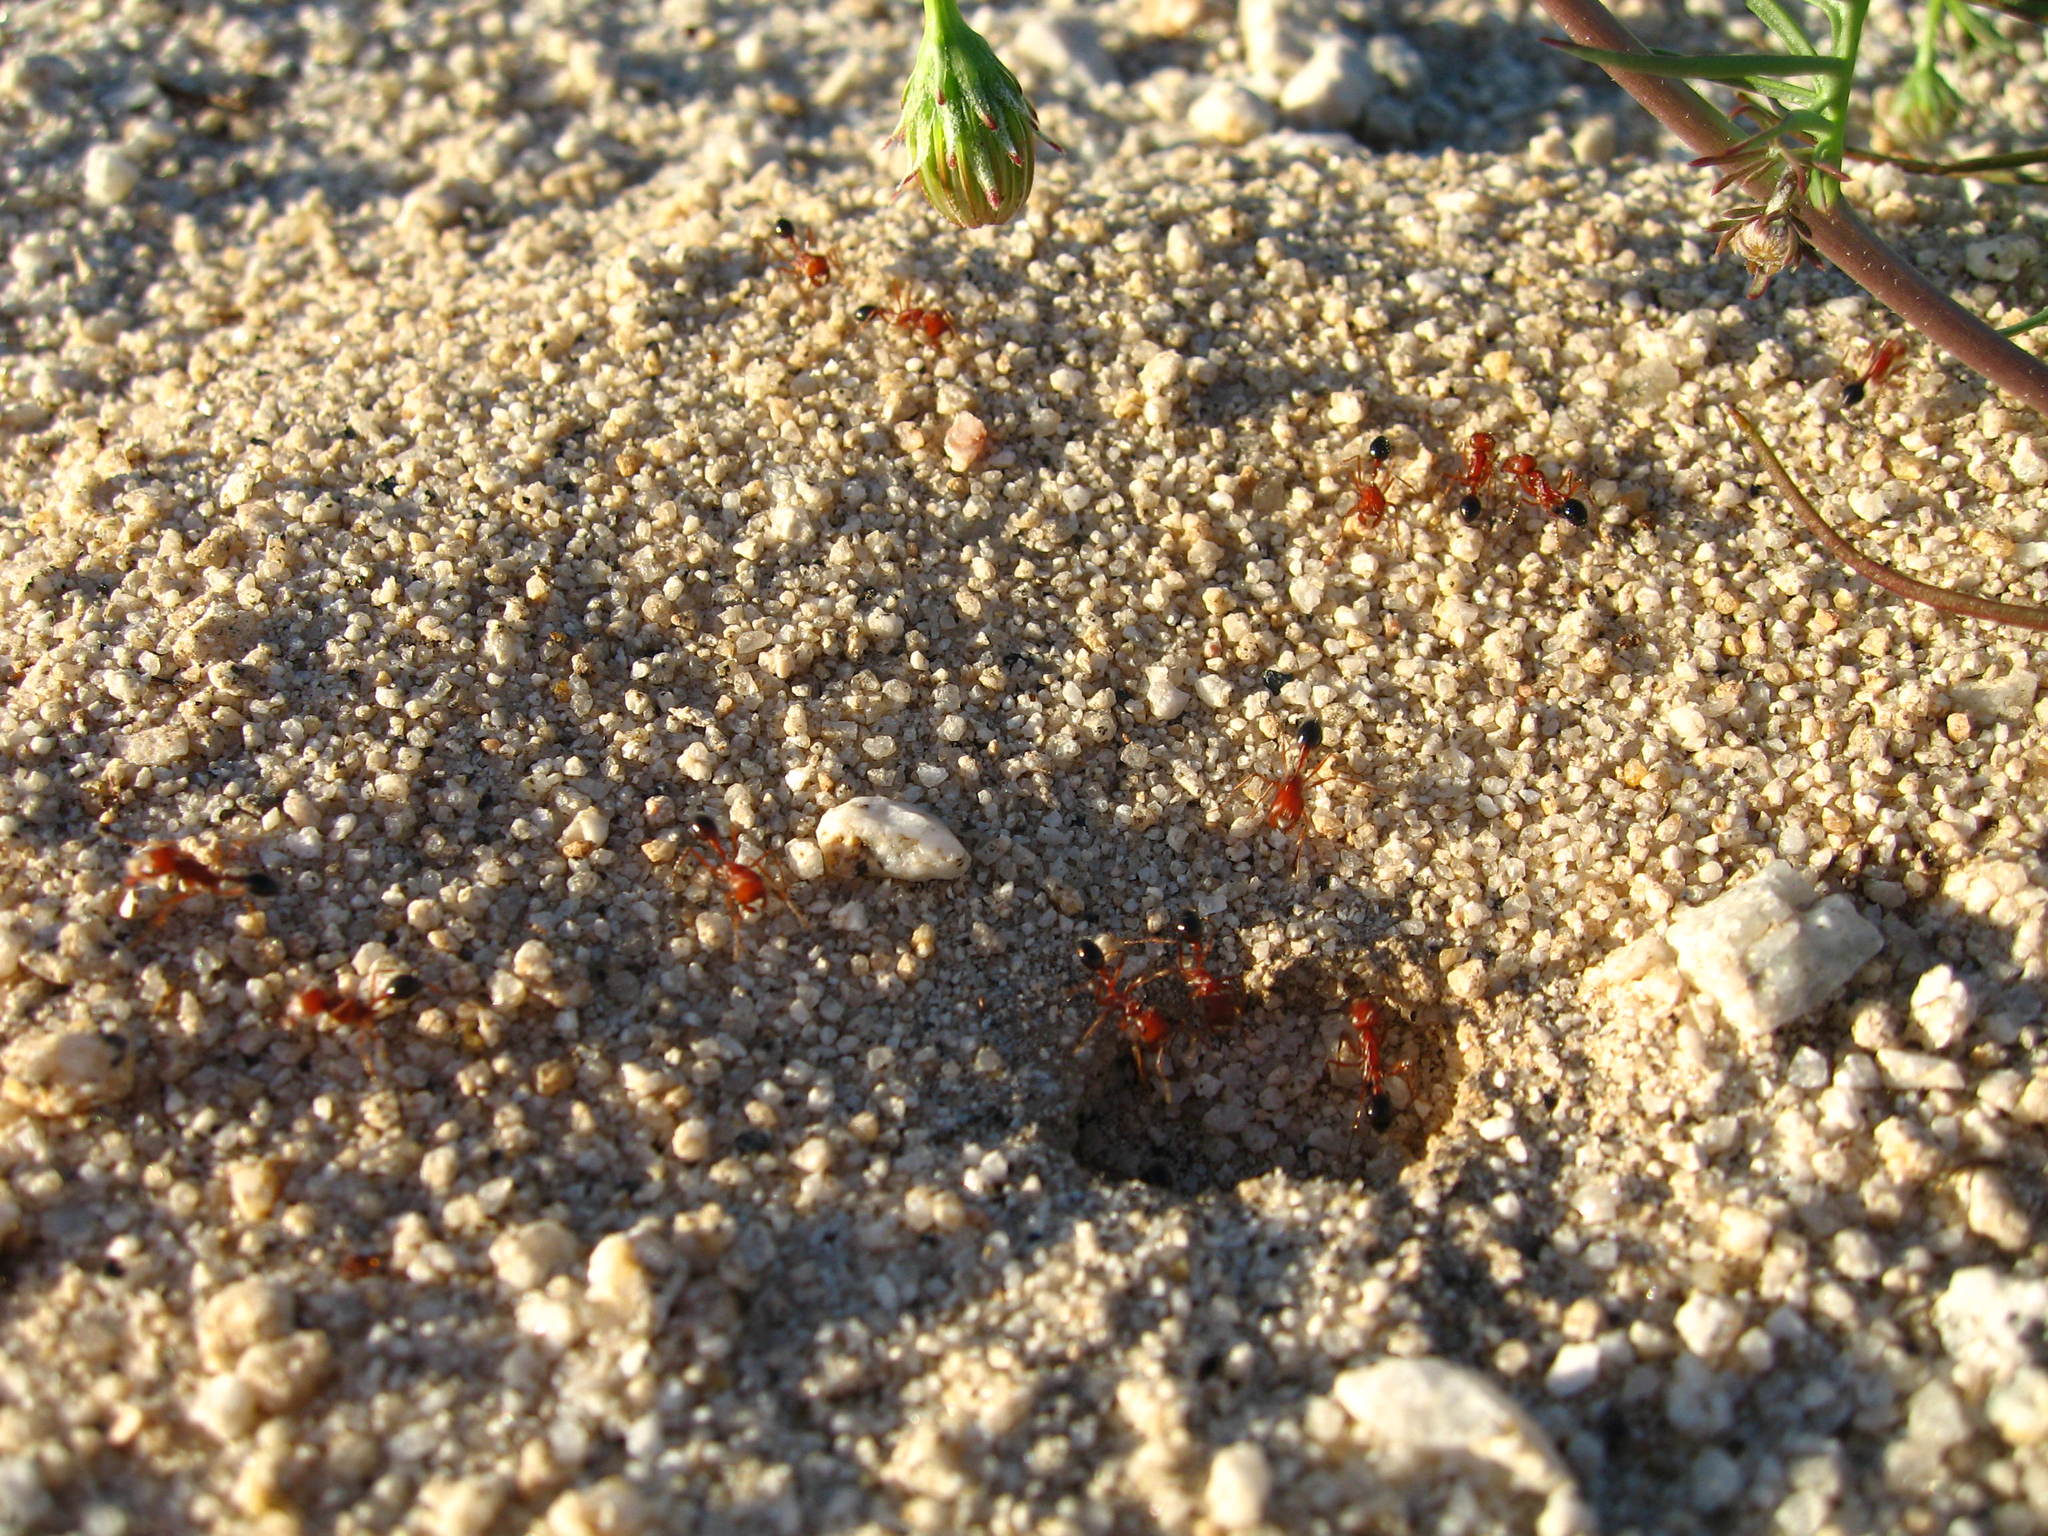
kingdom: Animalia
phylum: Arthropoda
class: Insecta
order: Hymenoptera
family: Formicidae
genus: Pogonomyrmex
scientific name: Pogonomyrmex californicus
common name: California harvester ant
